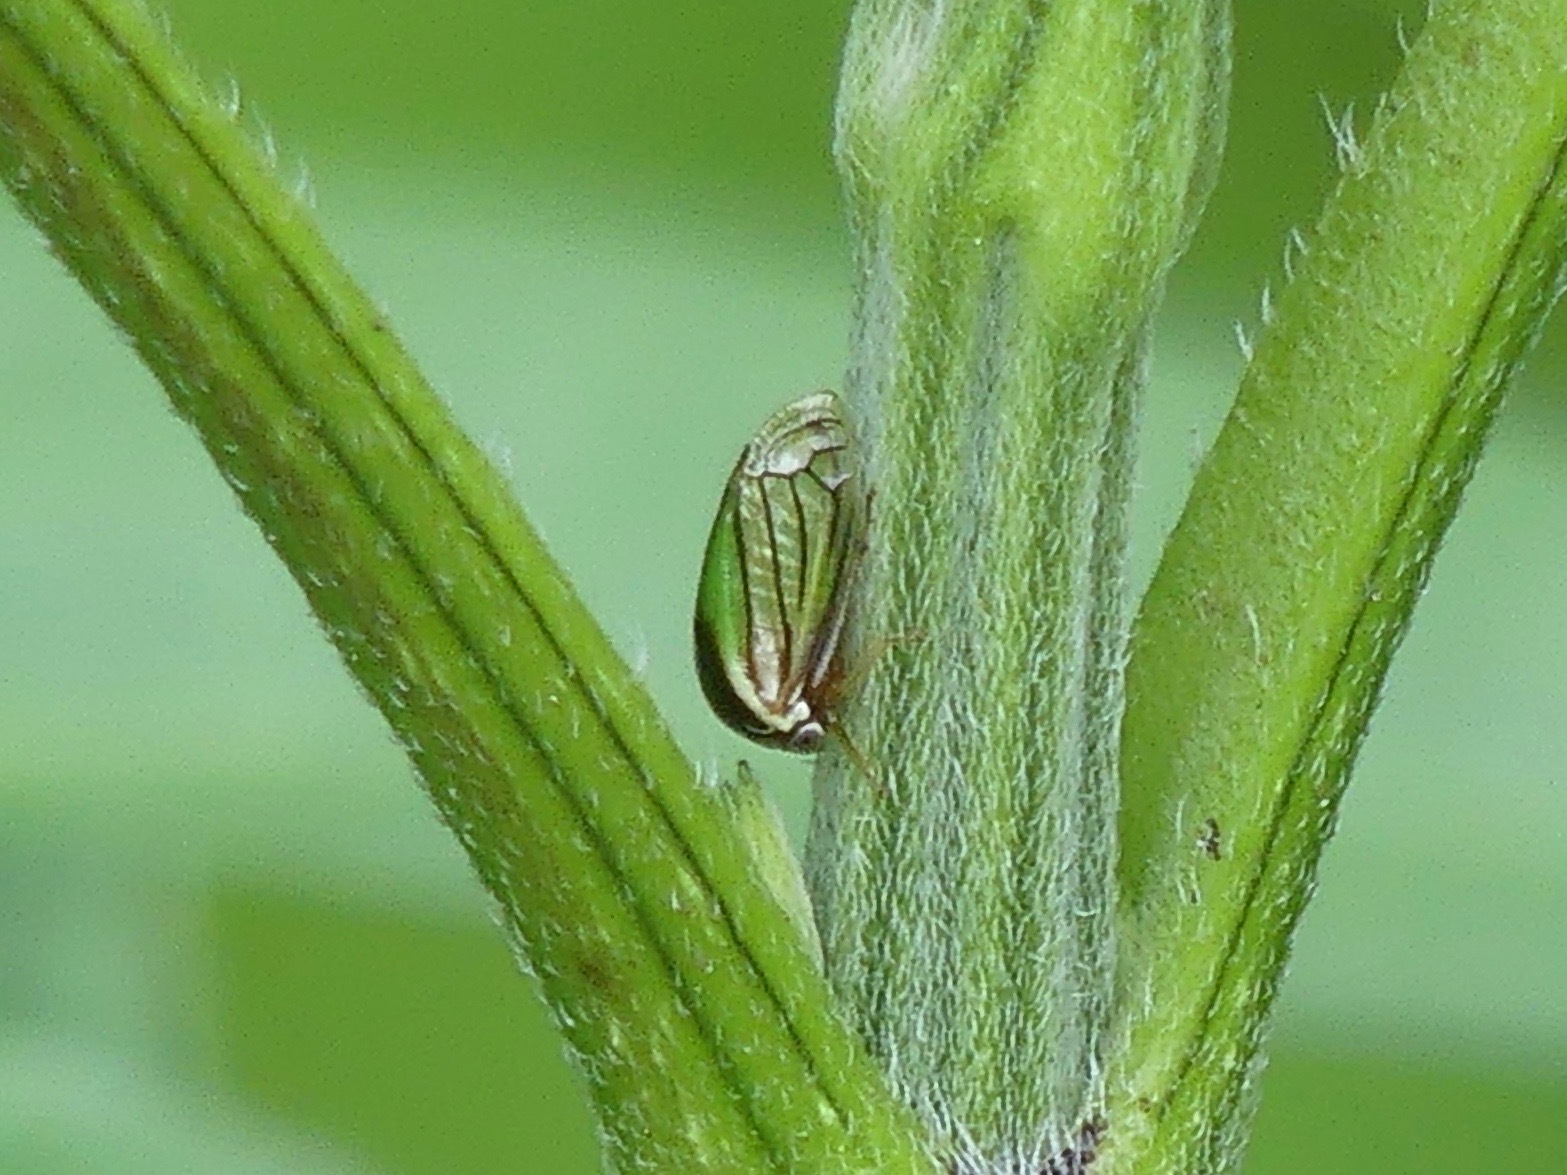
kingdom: Animalia
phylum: Arthropoda
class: Insecta
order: Hemiptera
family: Membracidae
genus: Acutalis
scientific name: Acutalis tartarea
